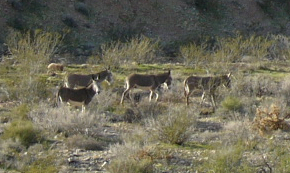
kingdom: Animalia
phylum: Chordata
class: Mammalia
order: Perissodactyla
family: Equidae
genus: Equus
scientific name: Equus asinus
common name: Ass
